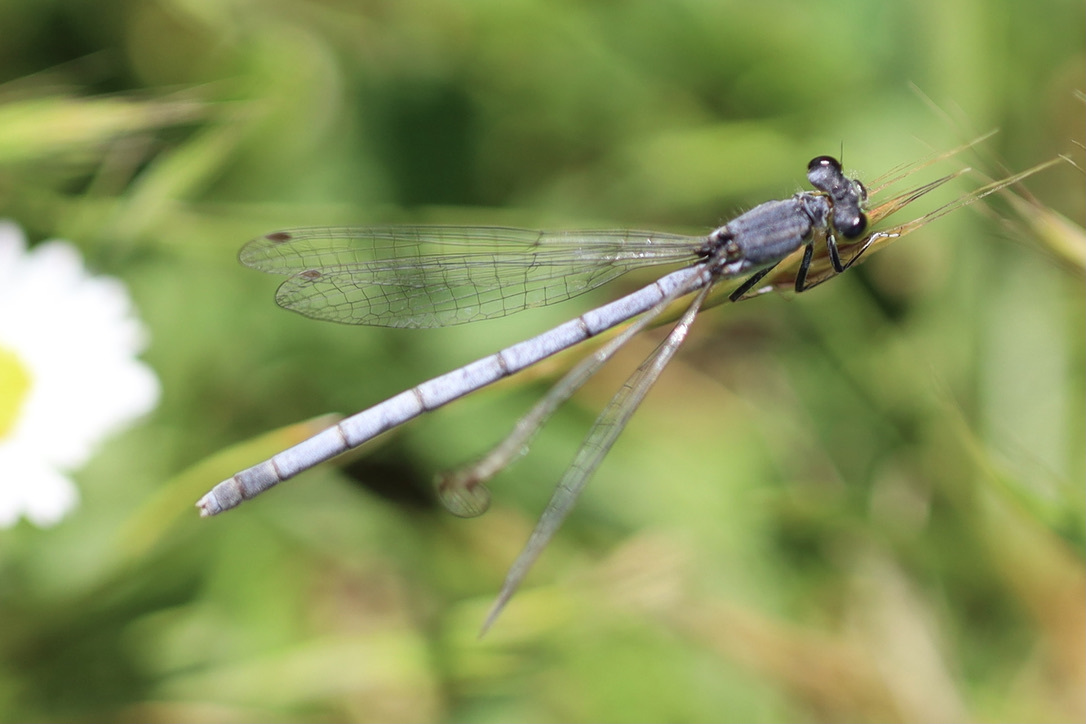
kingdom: Animalia
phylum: Arthropoda
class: Insecta
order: Odonata
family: Coenagrionidae
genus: Ischnura
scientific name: Ischnura perparva
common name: Western forktail
